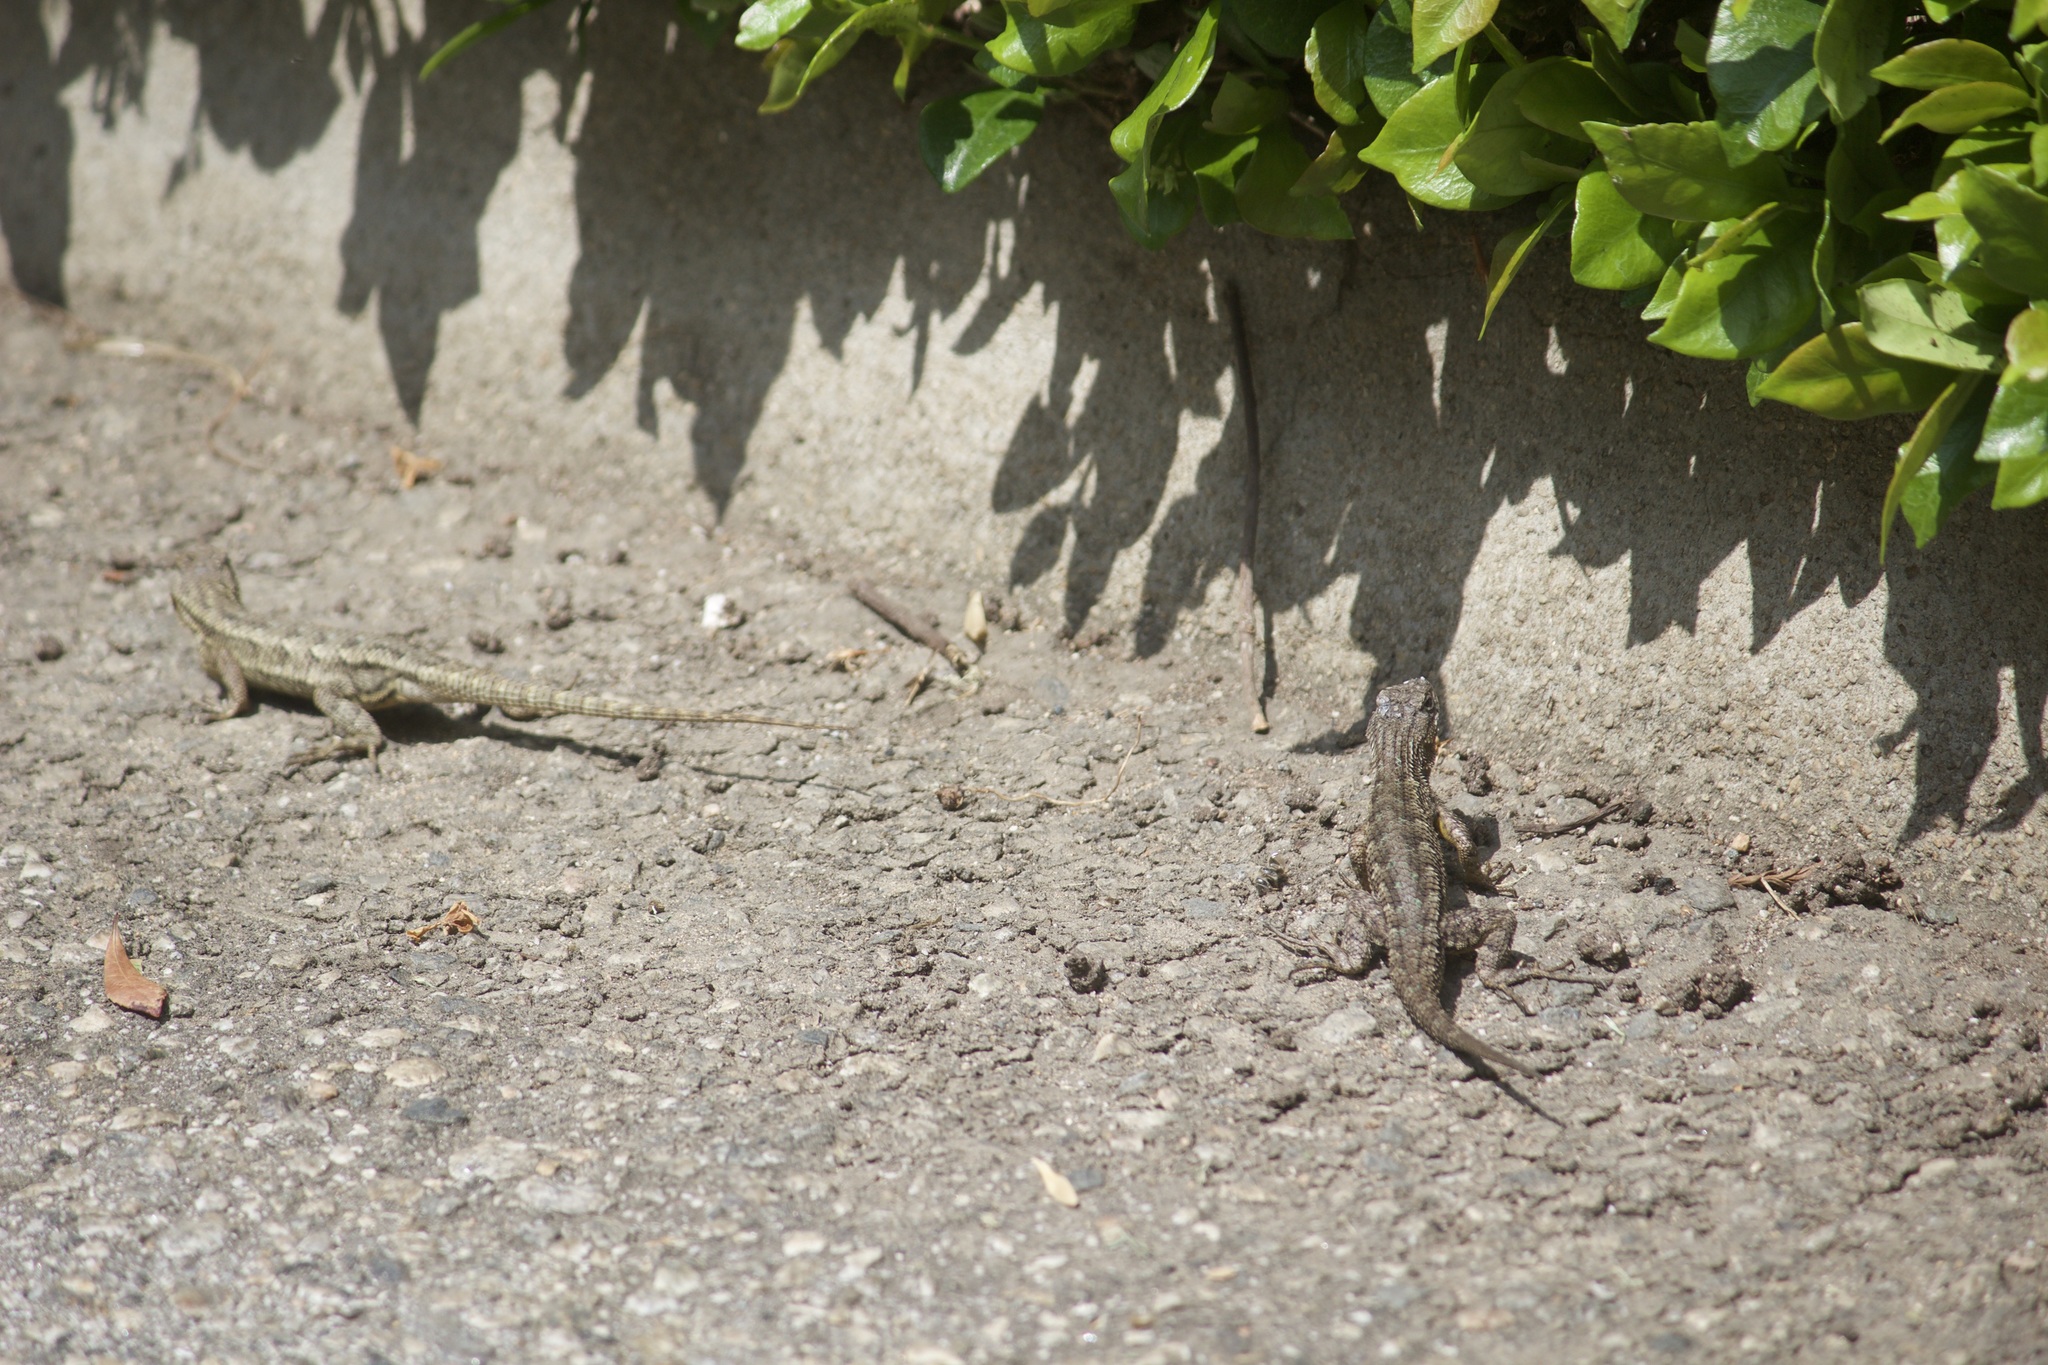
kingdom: Animalia
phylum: Chordata
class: Squamata
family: Phrynosomatidae
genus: Sceloporus
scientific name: Sceloporus occidentalis
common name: Western fence lizard
